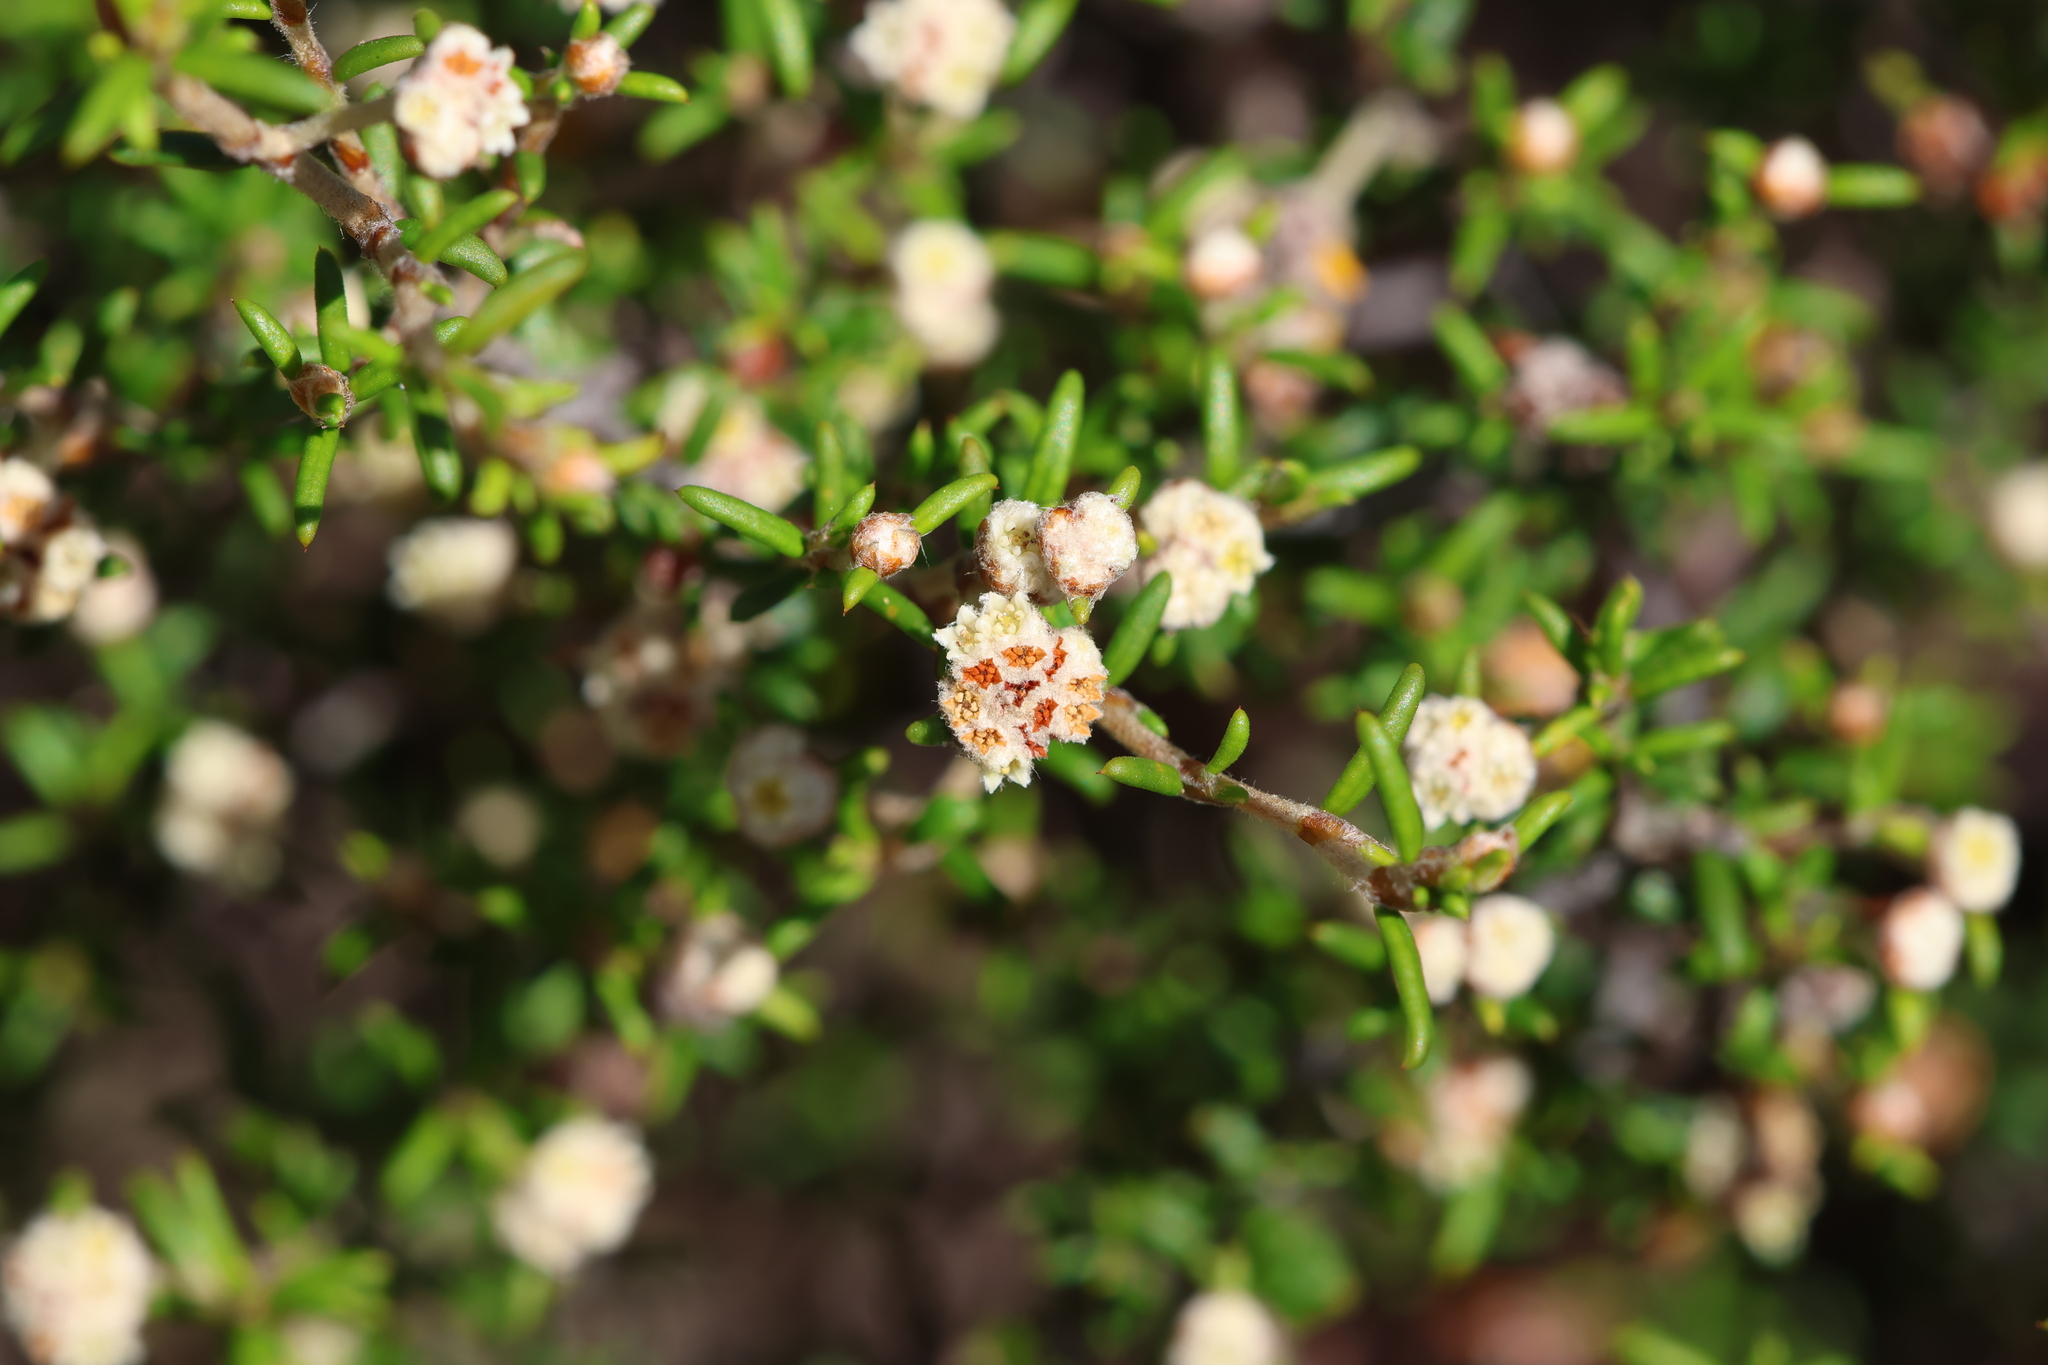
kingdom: Plantae
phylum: Tracheophyta
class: Magnoliopsida
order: Rosales
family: Rhamnaceae
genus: Spyridium
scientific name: Spyridium eriocephalum
